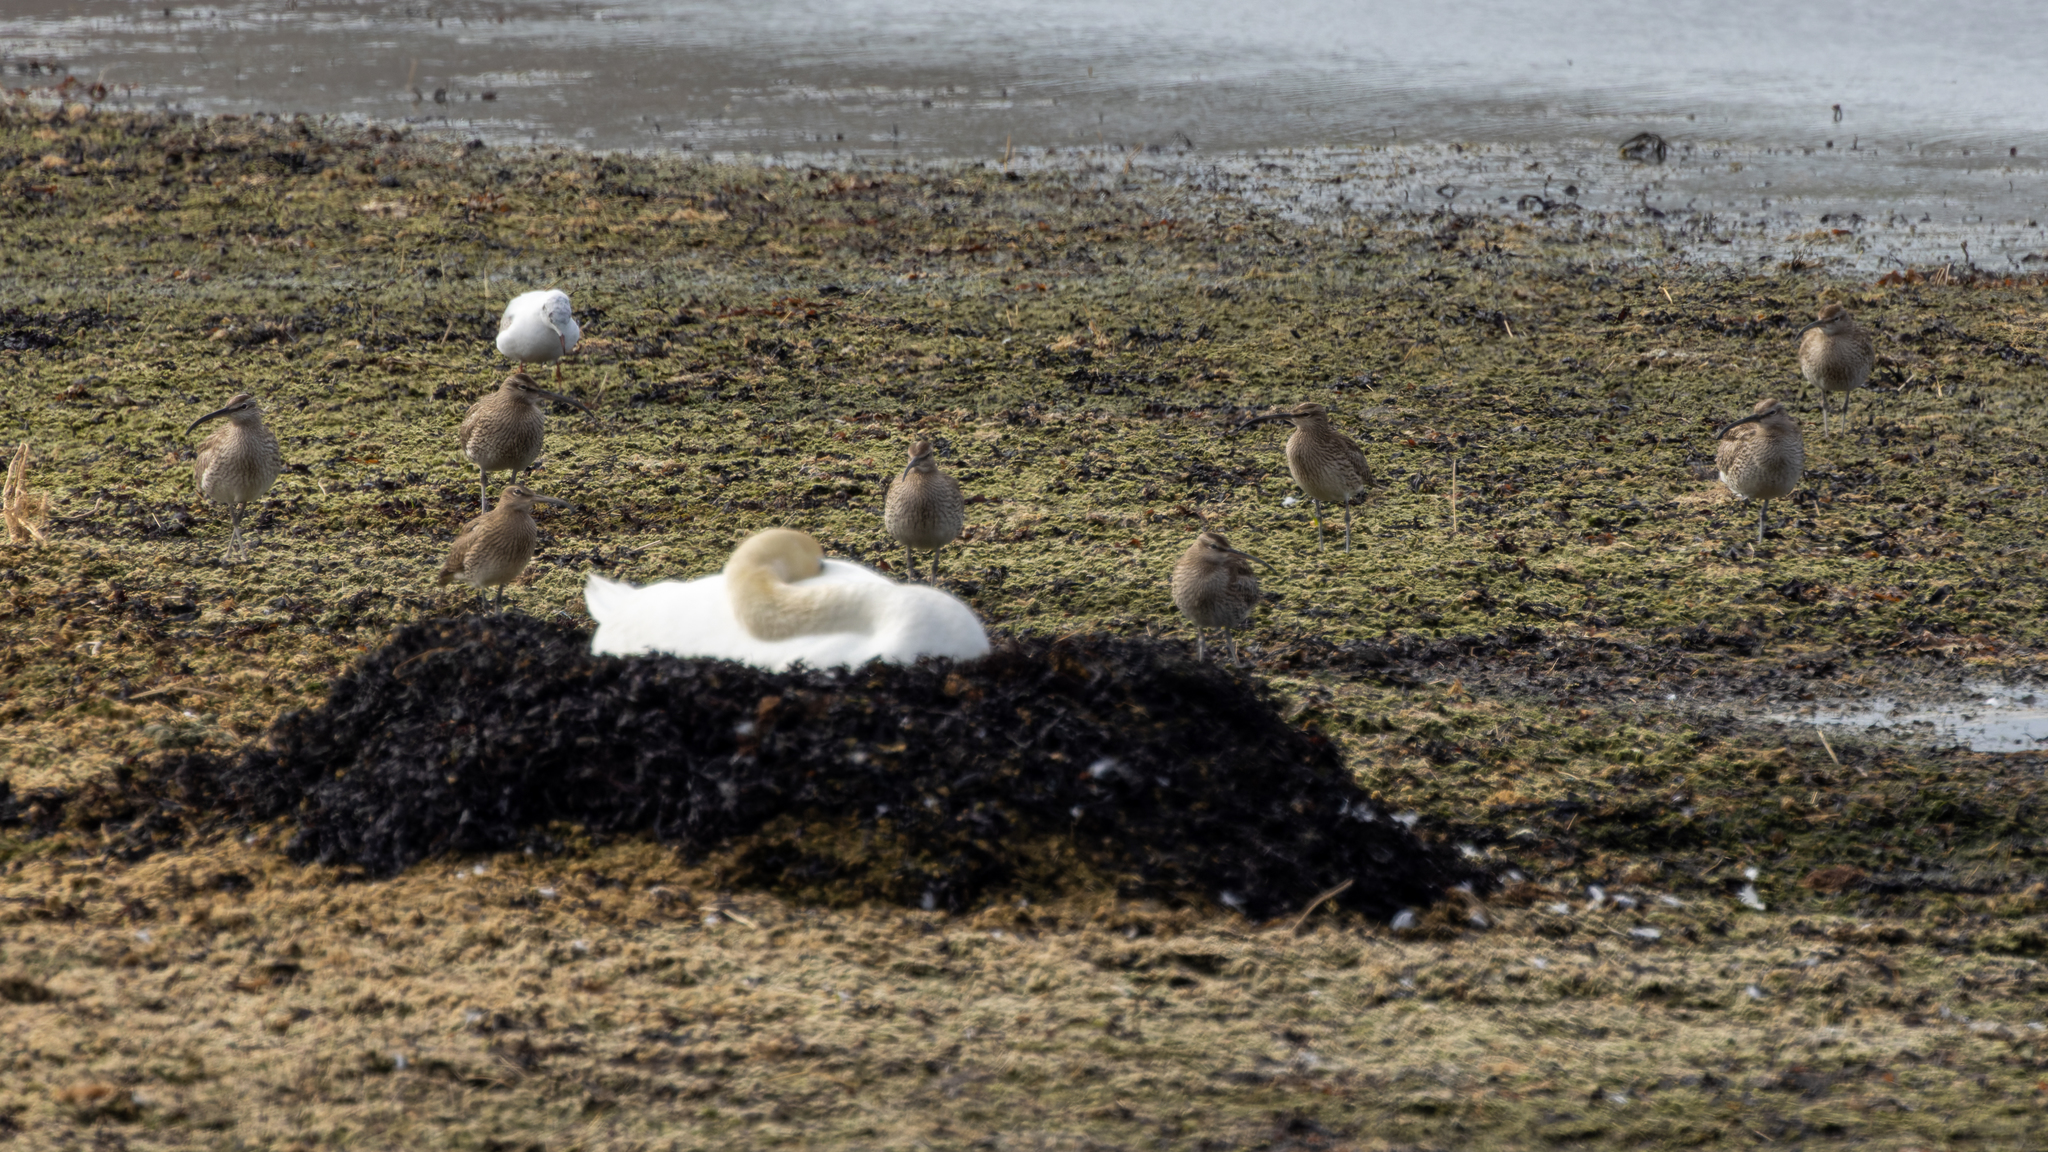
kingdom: Animalia
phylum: Chordata
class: Aves
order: Charadriiformes
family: Scolopacidae
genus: Numenius
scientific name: Numenius phaeopus
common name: Whimbrel
